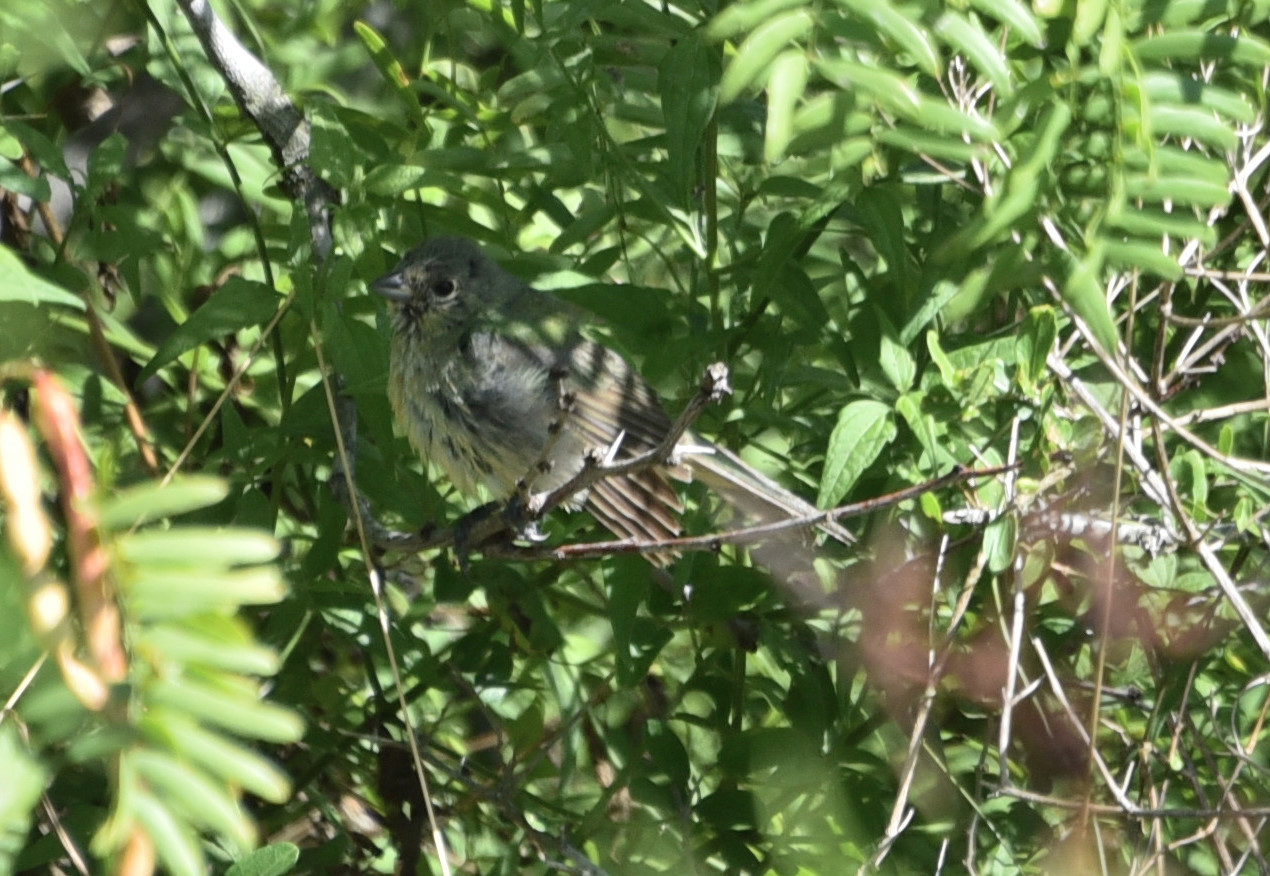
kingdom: Animalia
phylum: Chordata
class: Aves
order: Passeriformes
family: Cardinalidae
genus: Passerina
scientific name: Passerina ciris
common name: Painted bunting
